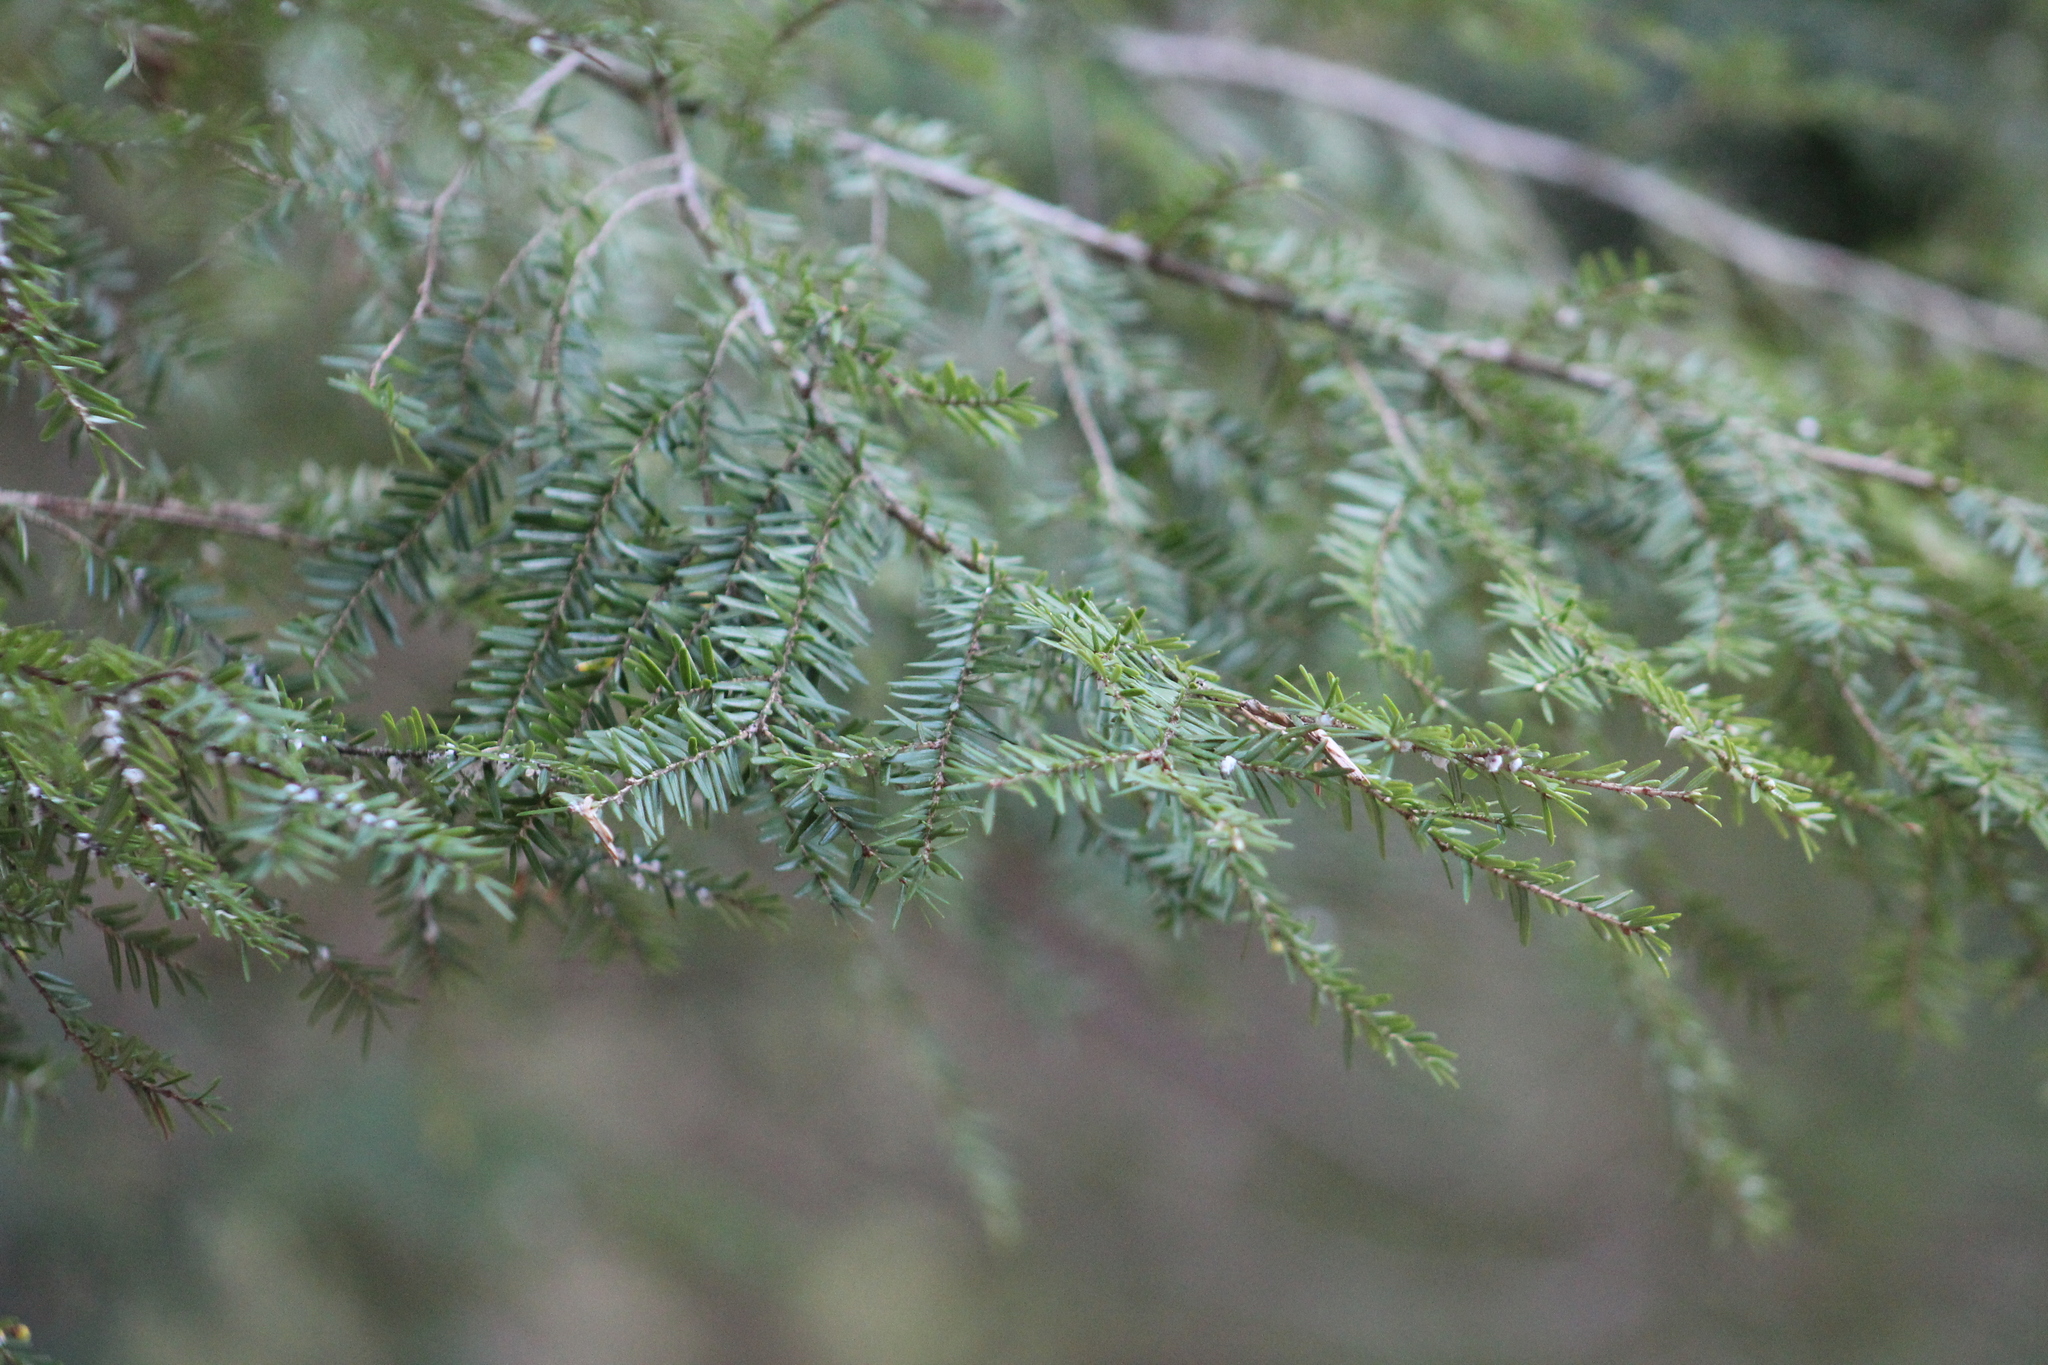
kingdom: Plantae
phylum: Tracheophyta
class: Pinopsida
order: Pinales
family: Pinaceae
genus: Tsuga
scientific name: Tsuga canadensis
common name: Eastern hemlock
